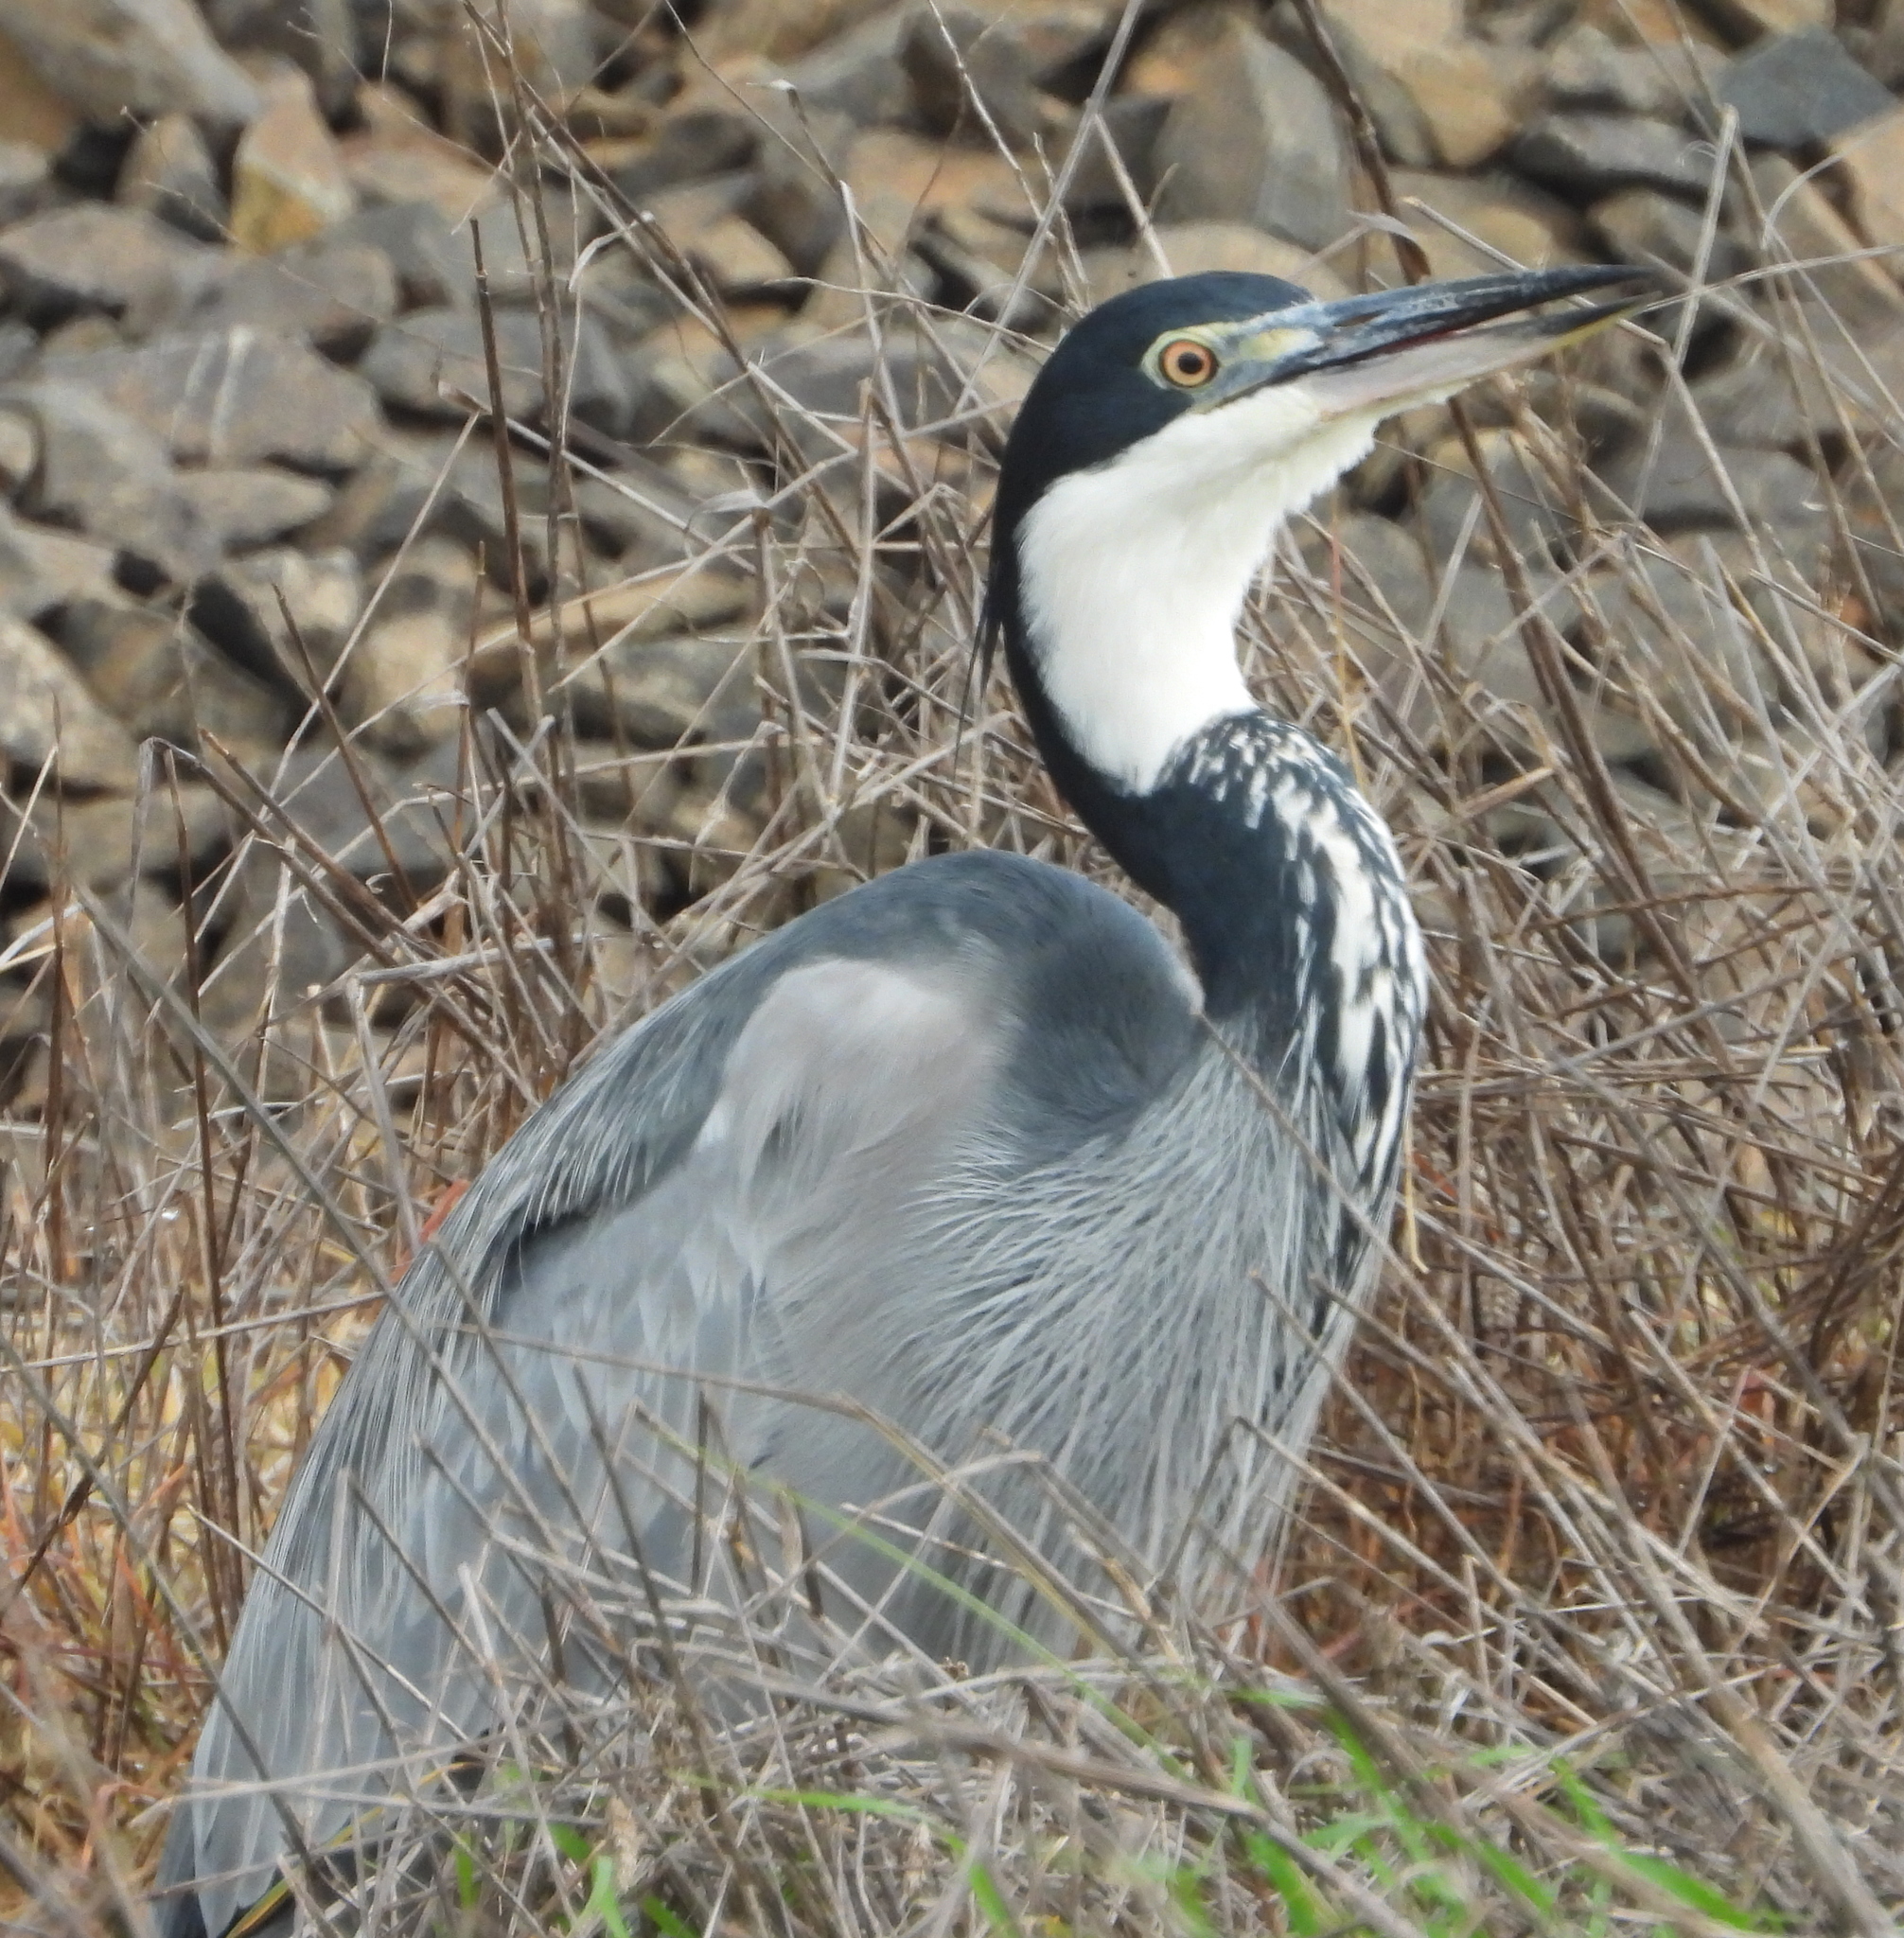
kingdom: Animalia
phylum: Chordata
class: Aves
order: Pelecaniformes
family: Ardeidae
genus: Ardea
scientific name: Ardea melanocephala
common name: Black-headed heron
